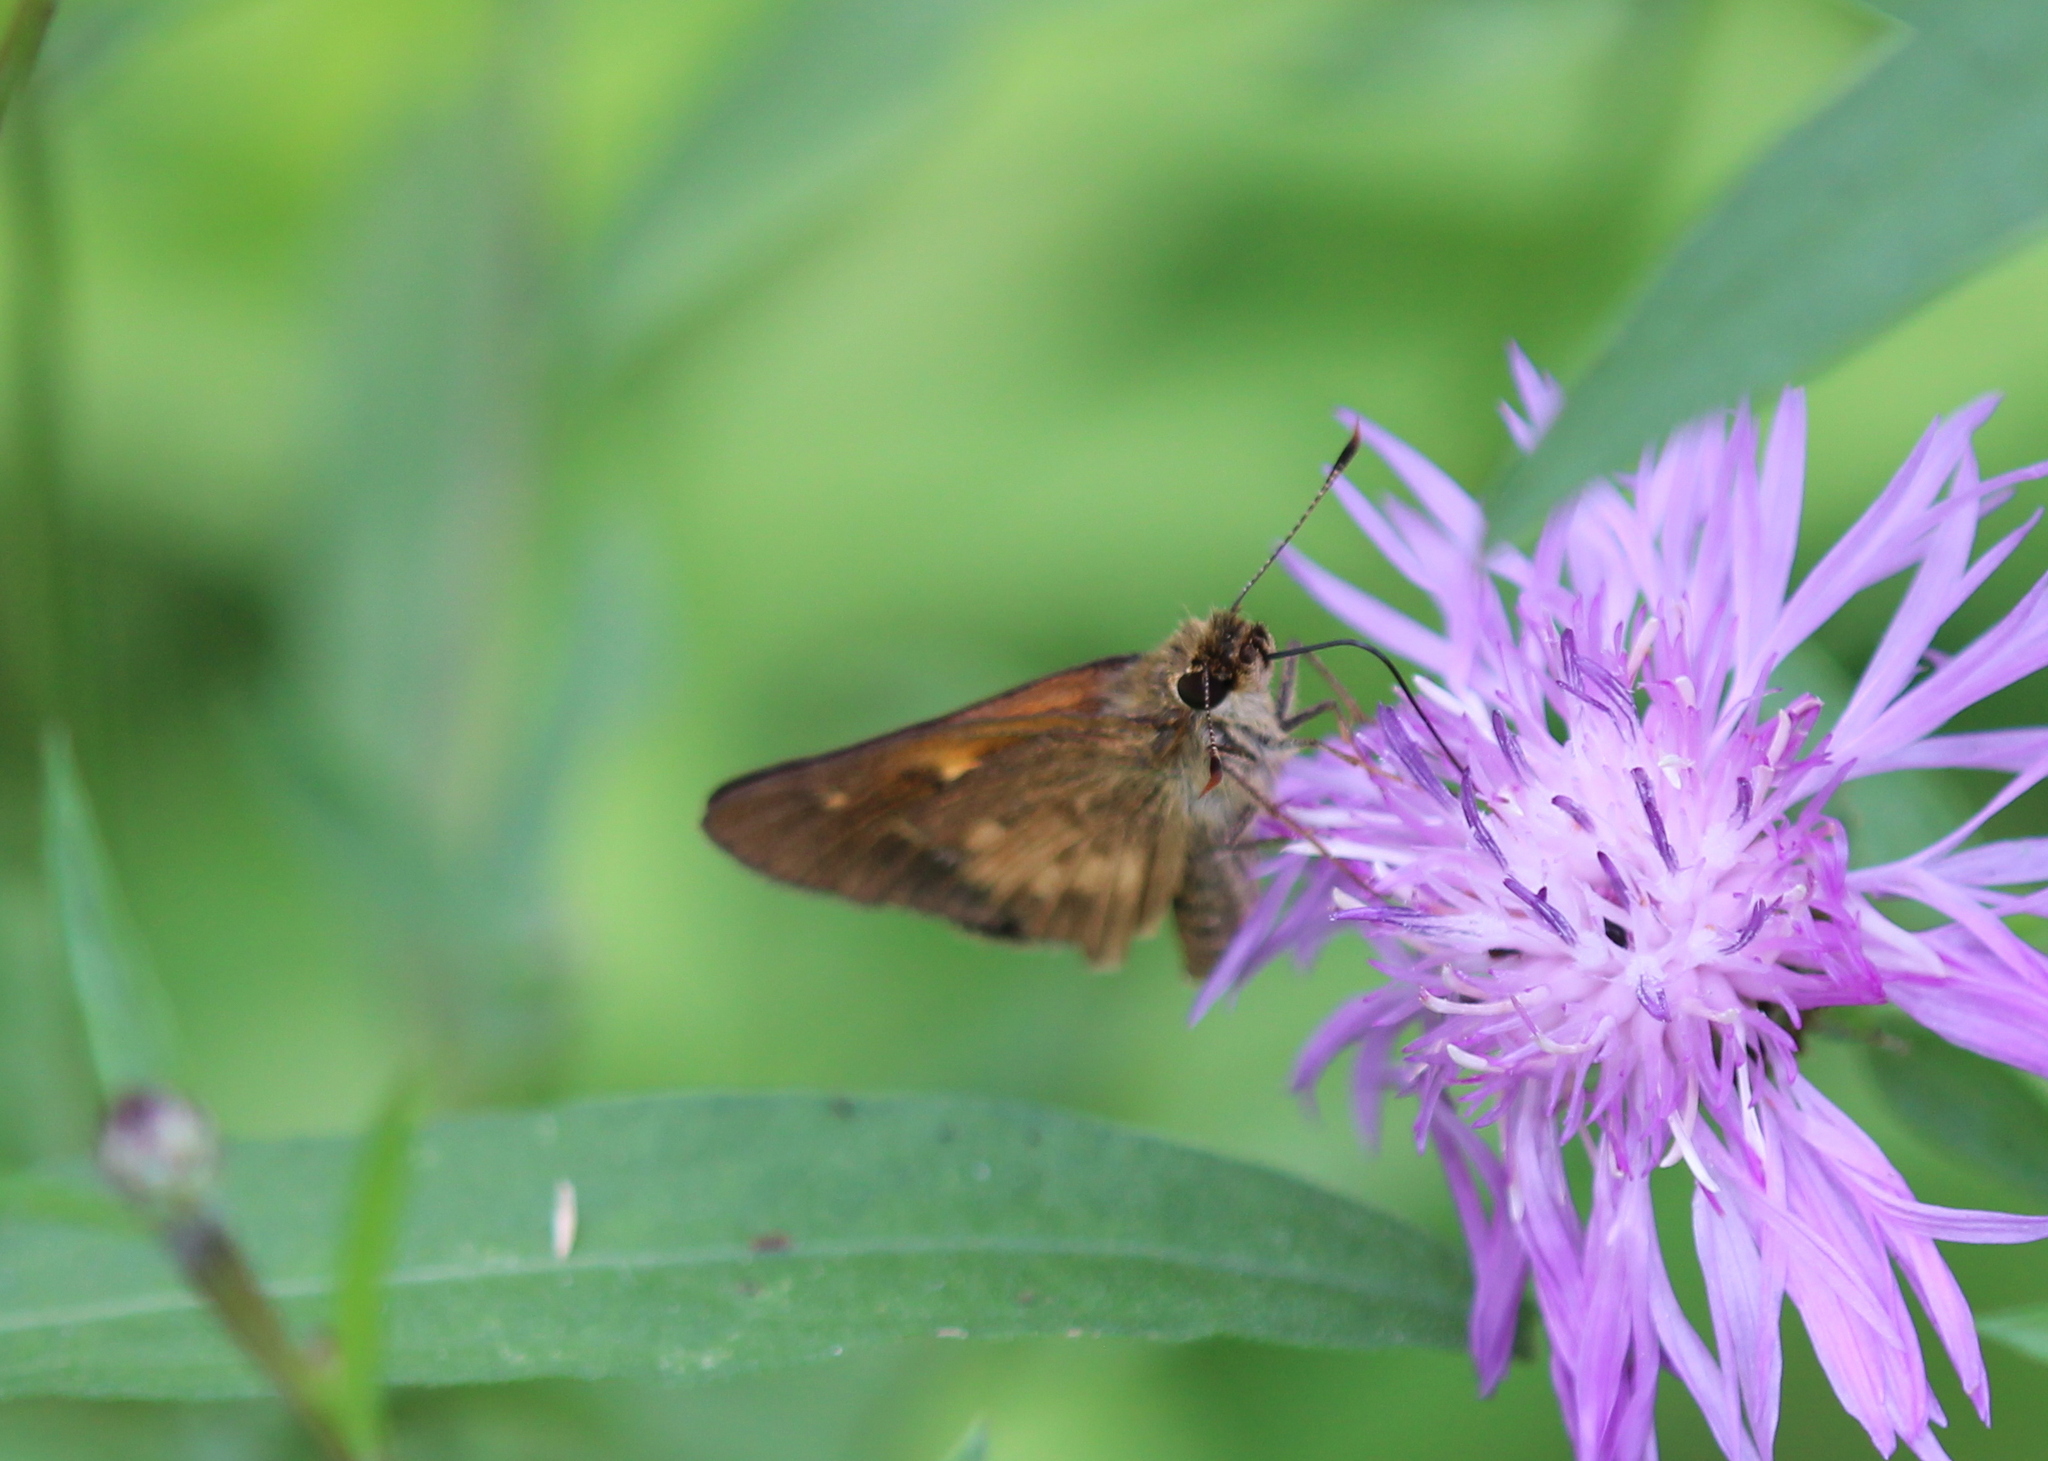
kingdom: Animalia
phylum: Arthropoda
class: Insecta
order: Lepidoptera
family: Hesperiidae
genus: Poanes
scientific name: Poanes viator
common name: Broad-winged skipper
